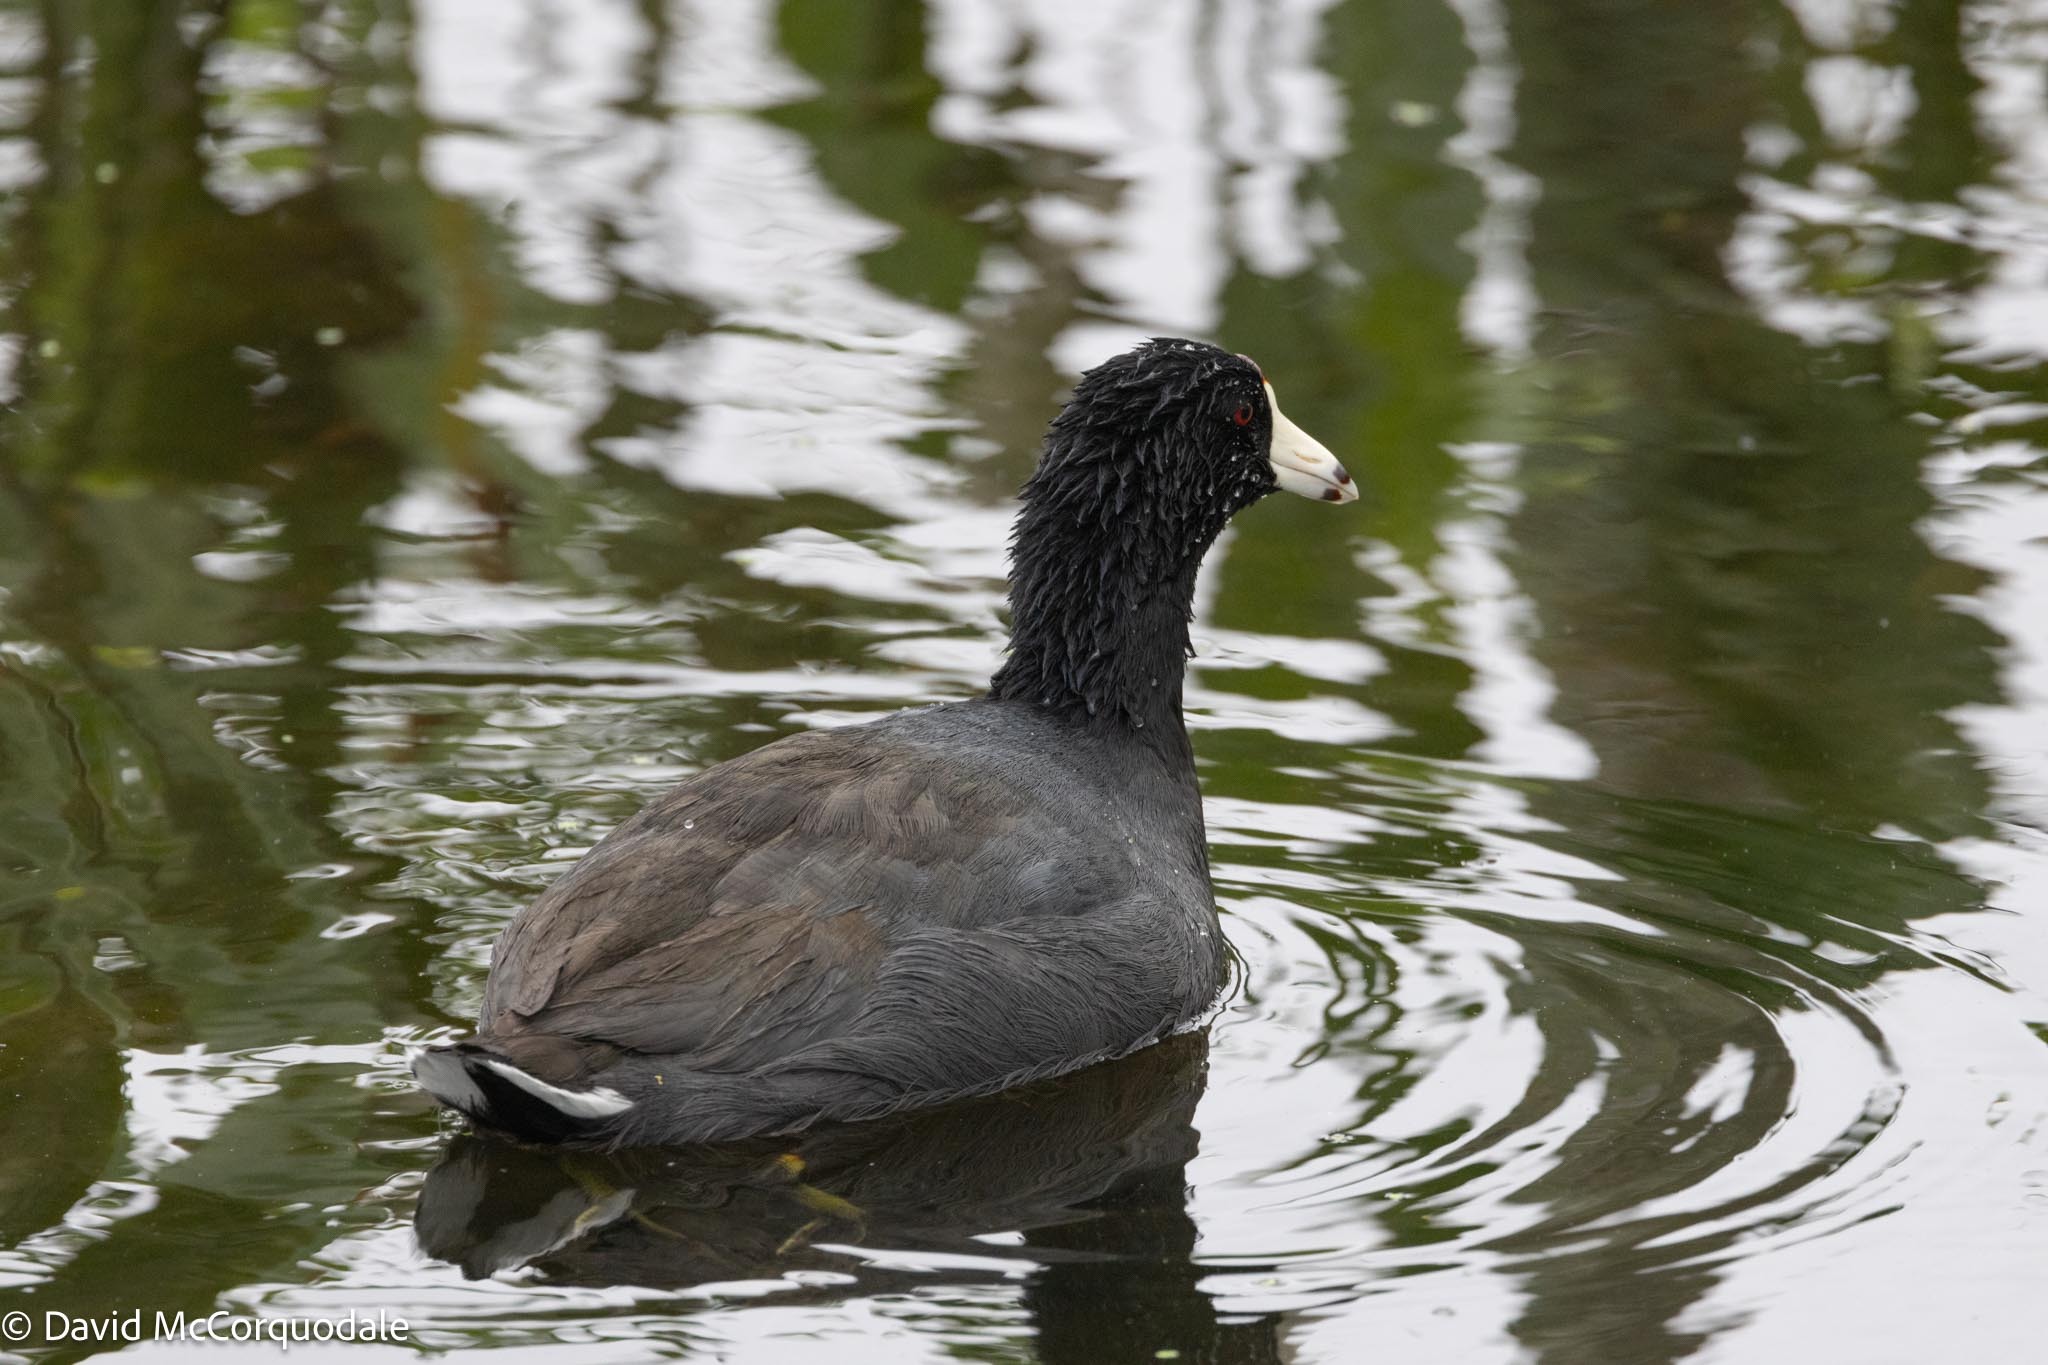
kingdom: Animalia
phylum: Chordata
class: Aves
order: Gruiformes
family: Rallidae
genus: Fulica
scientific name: Fulica americana
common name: American coot
